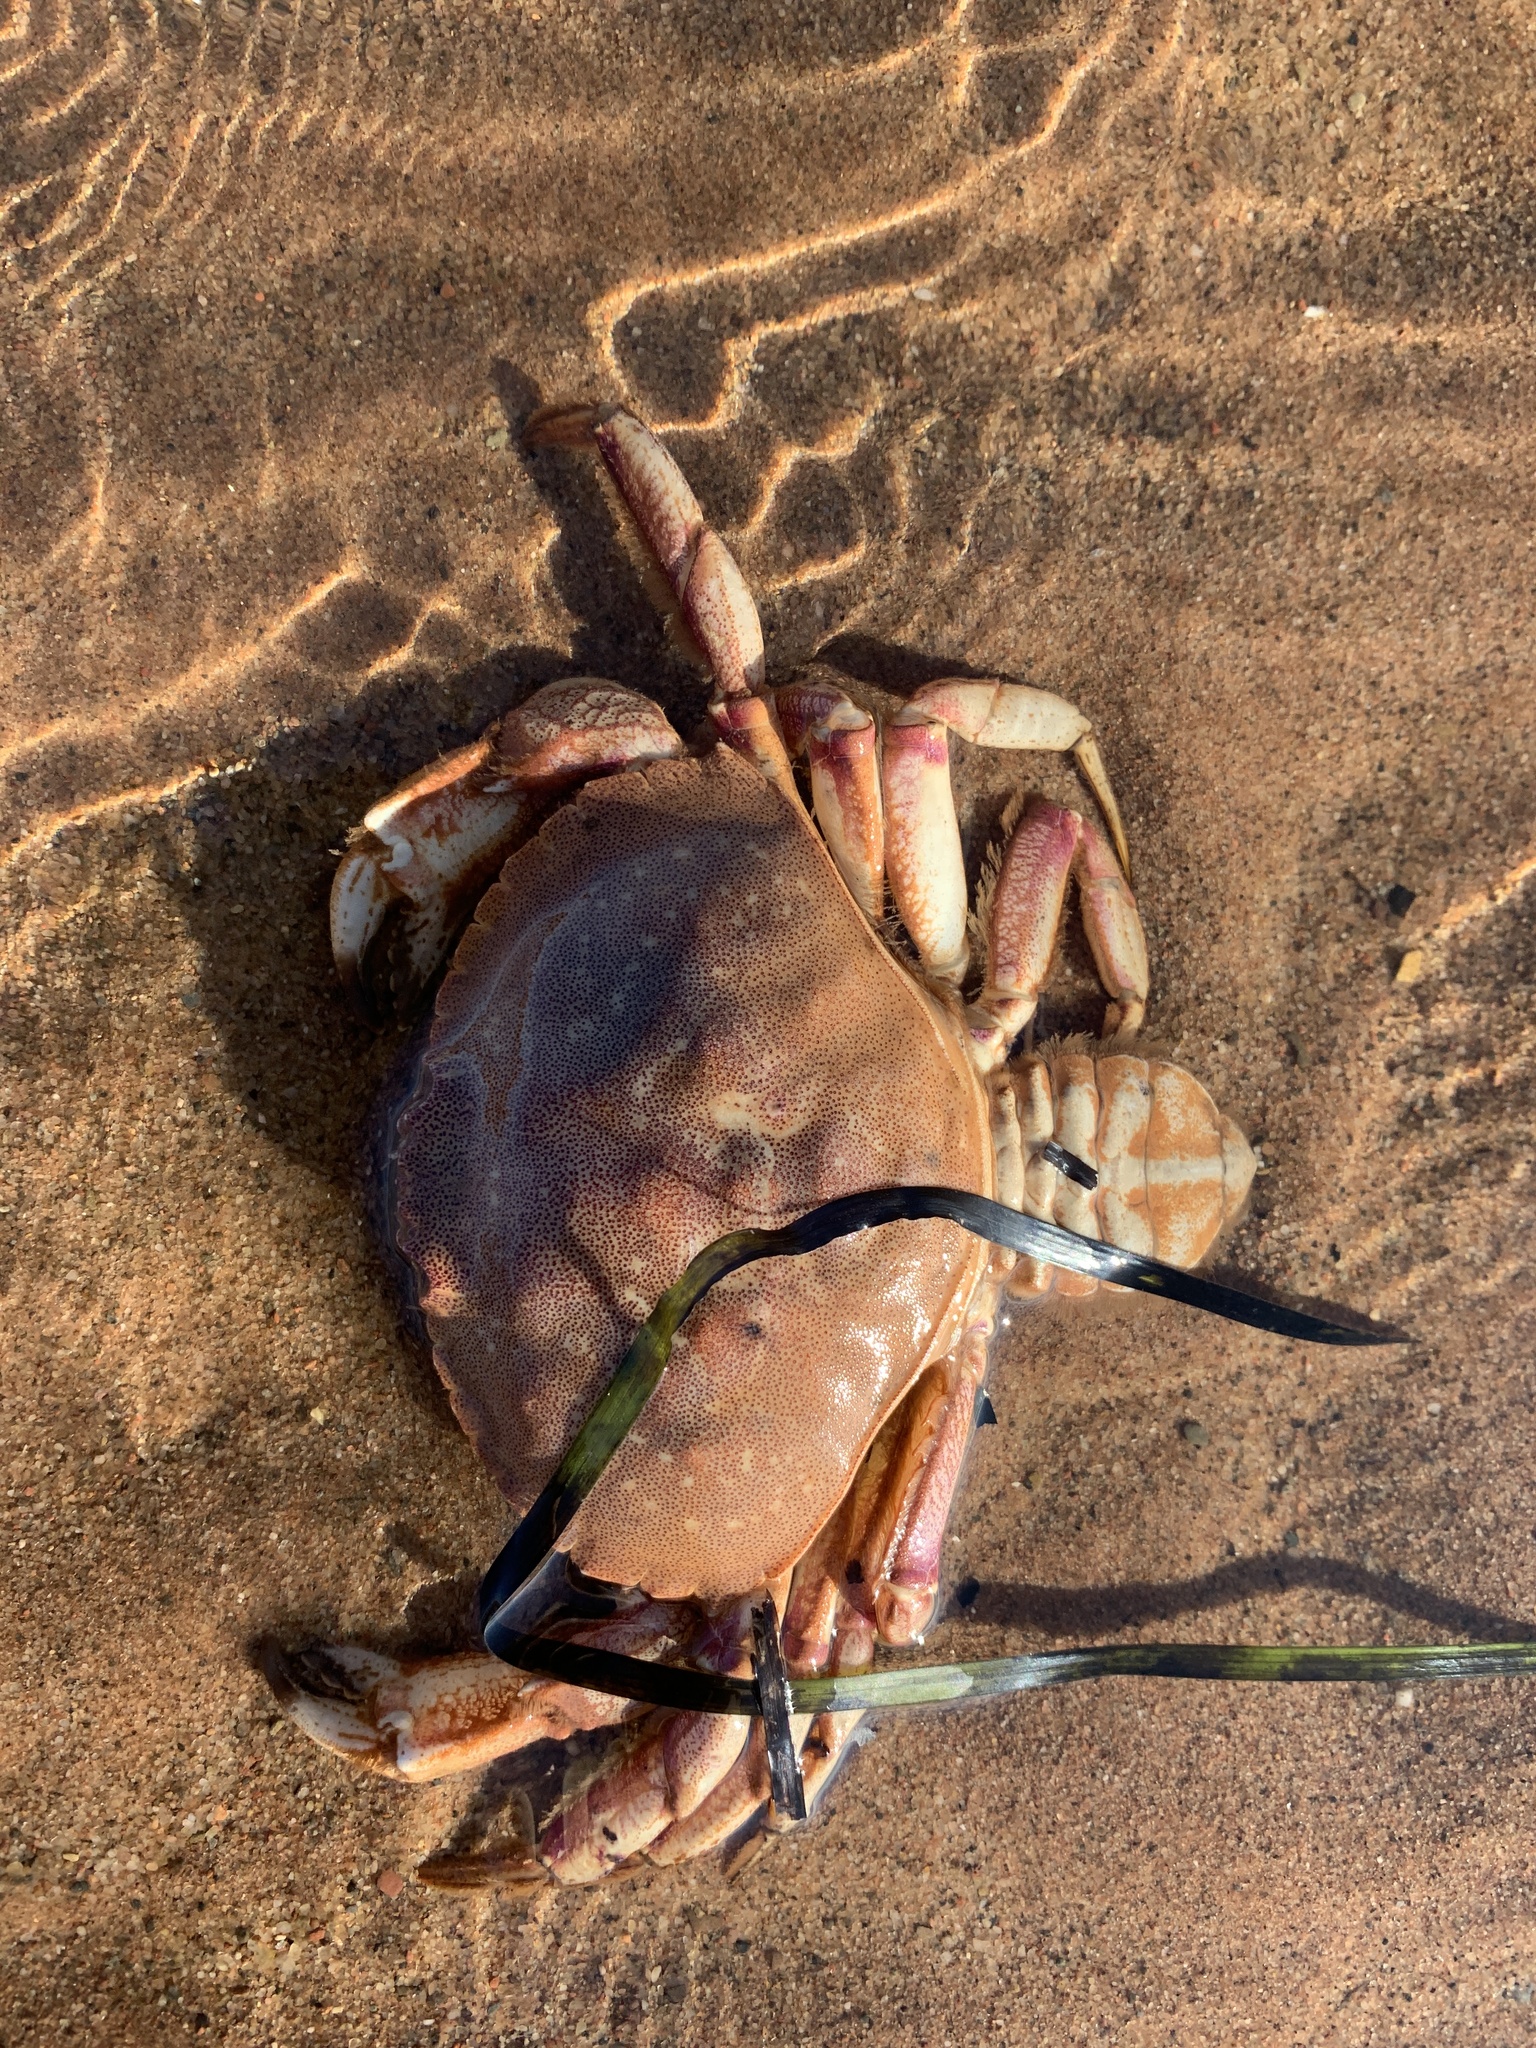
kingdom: Animalia
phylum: Arthropoda
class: Malacostraca
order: Decapoda
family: Cancridae
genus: Cancer
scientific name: Cancer irroratus
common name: Atlantic rock crab
